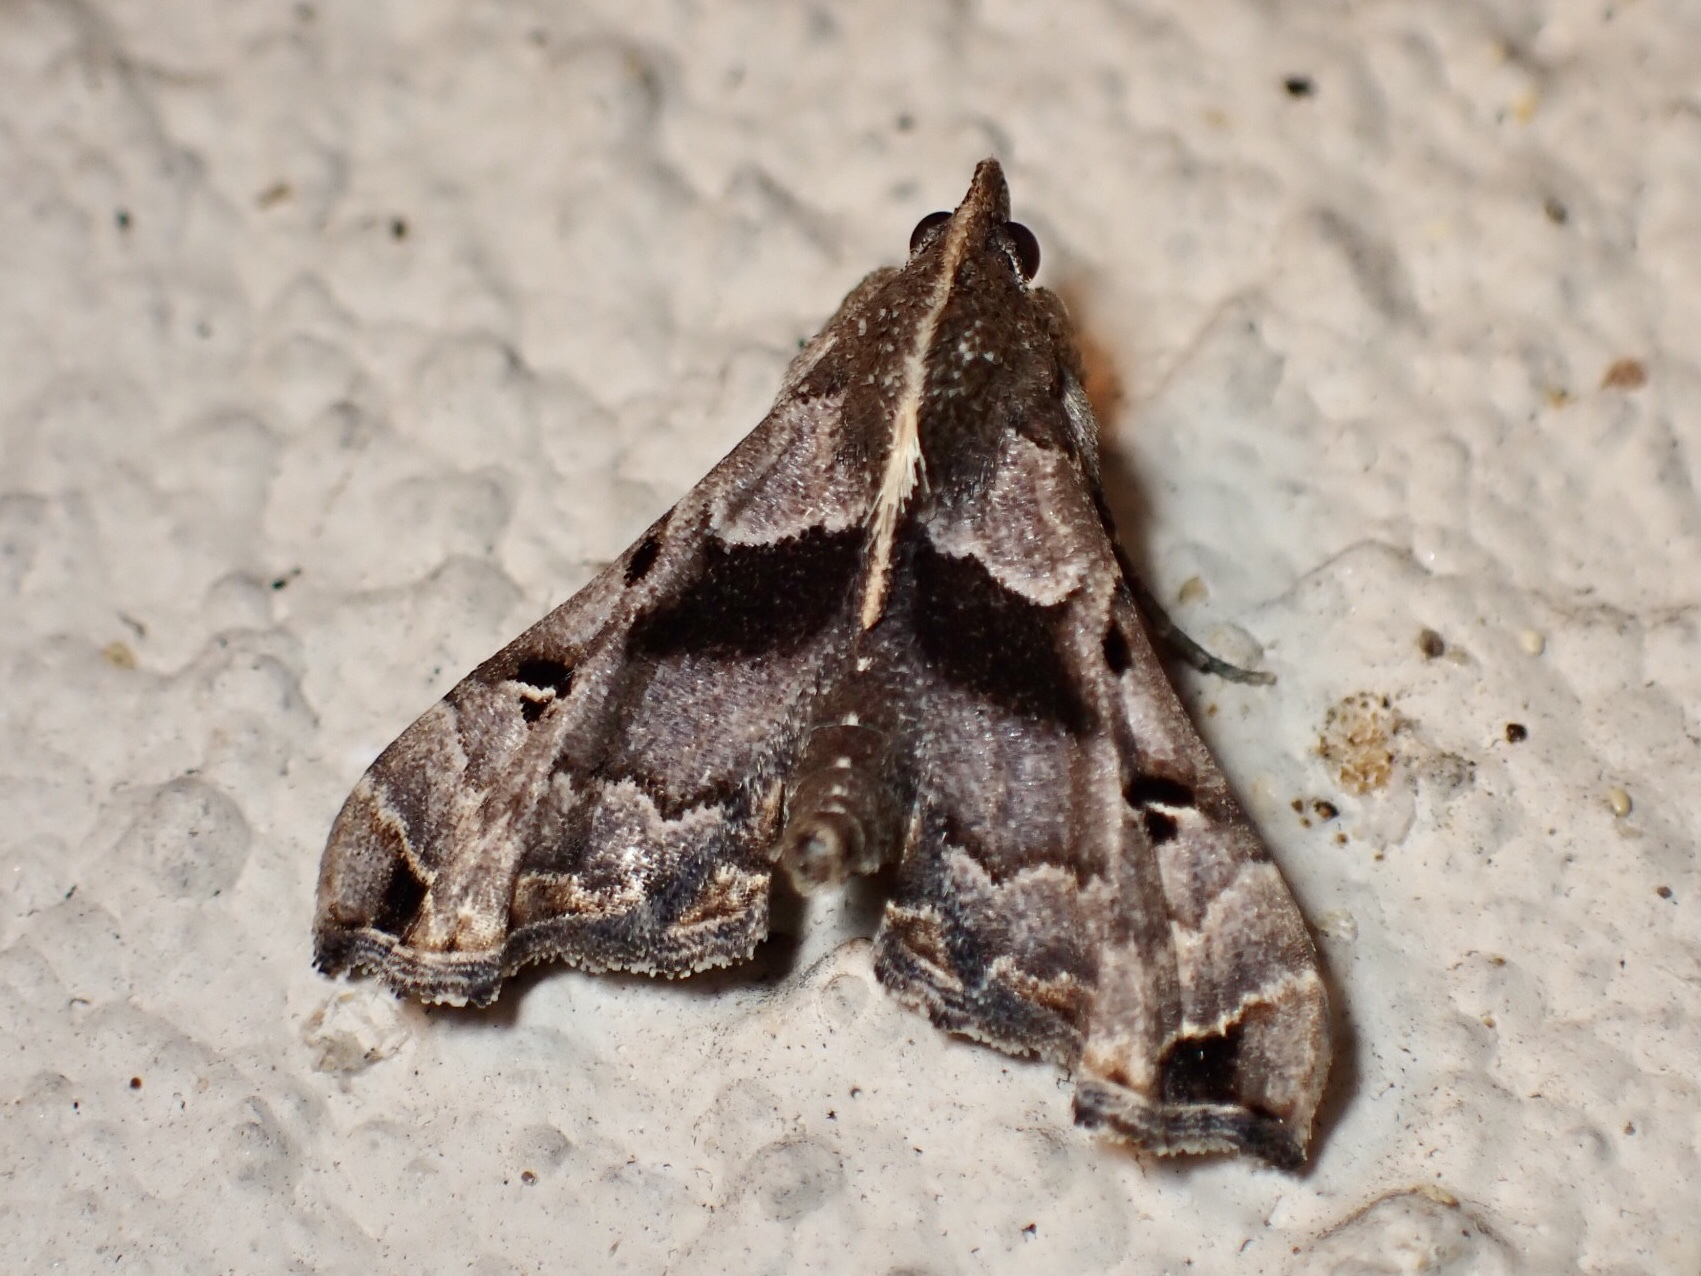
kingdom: Animalia
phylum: Arthropoda
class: Insecta
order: Lepidoptera
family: Erebidae
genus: Palthis
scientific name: Palthis asopialis
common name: Faint-spotted palthis moth
